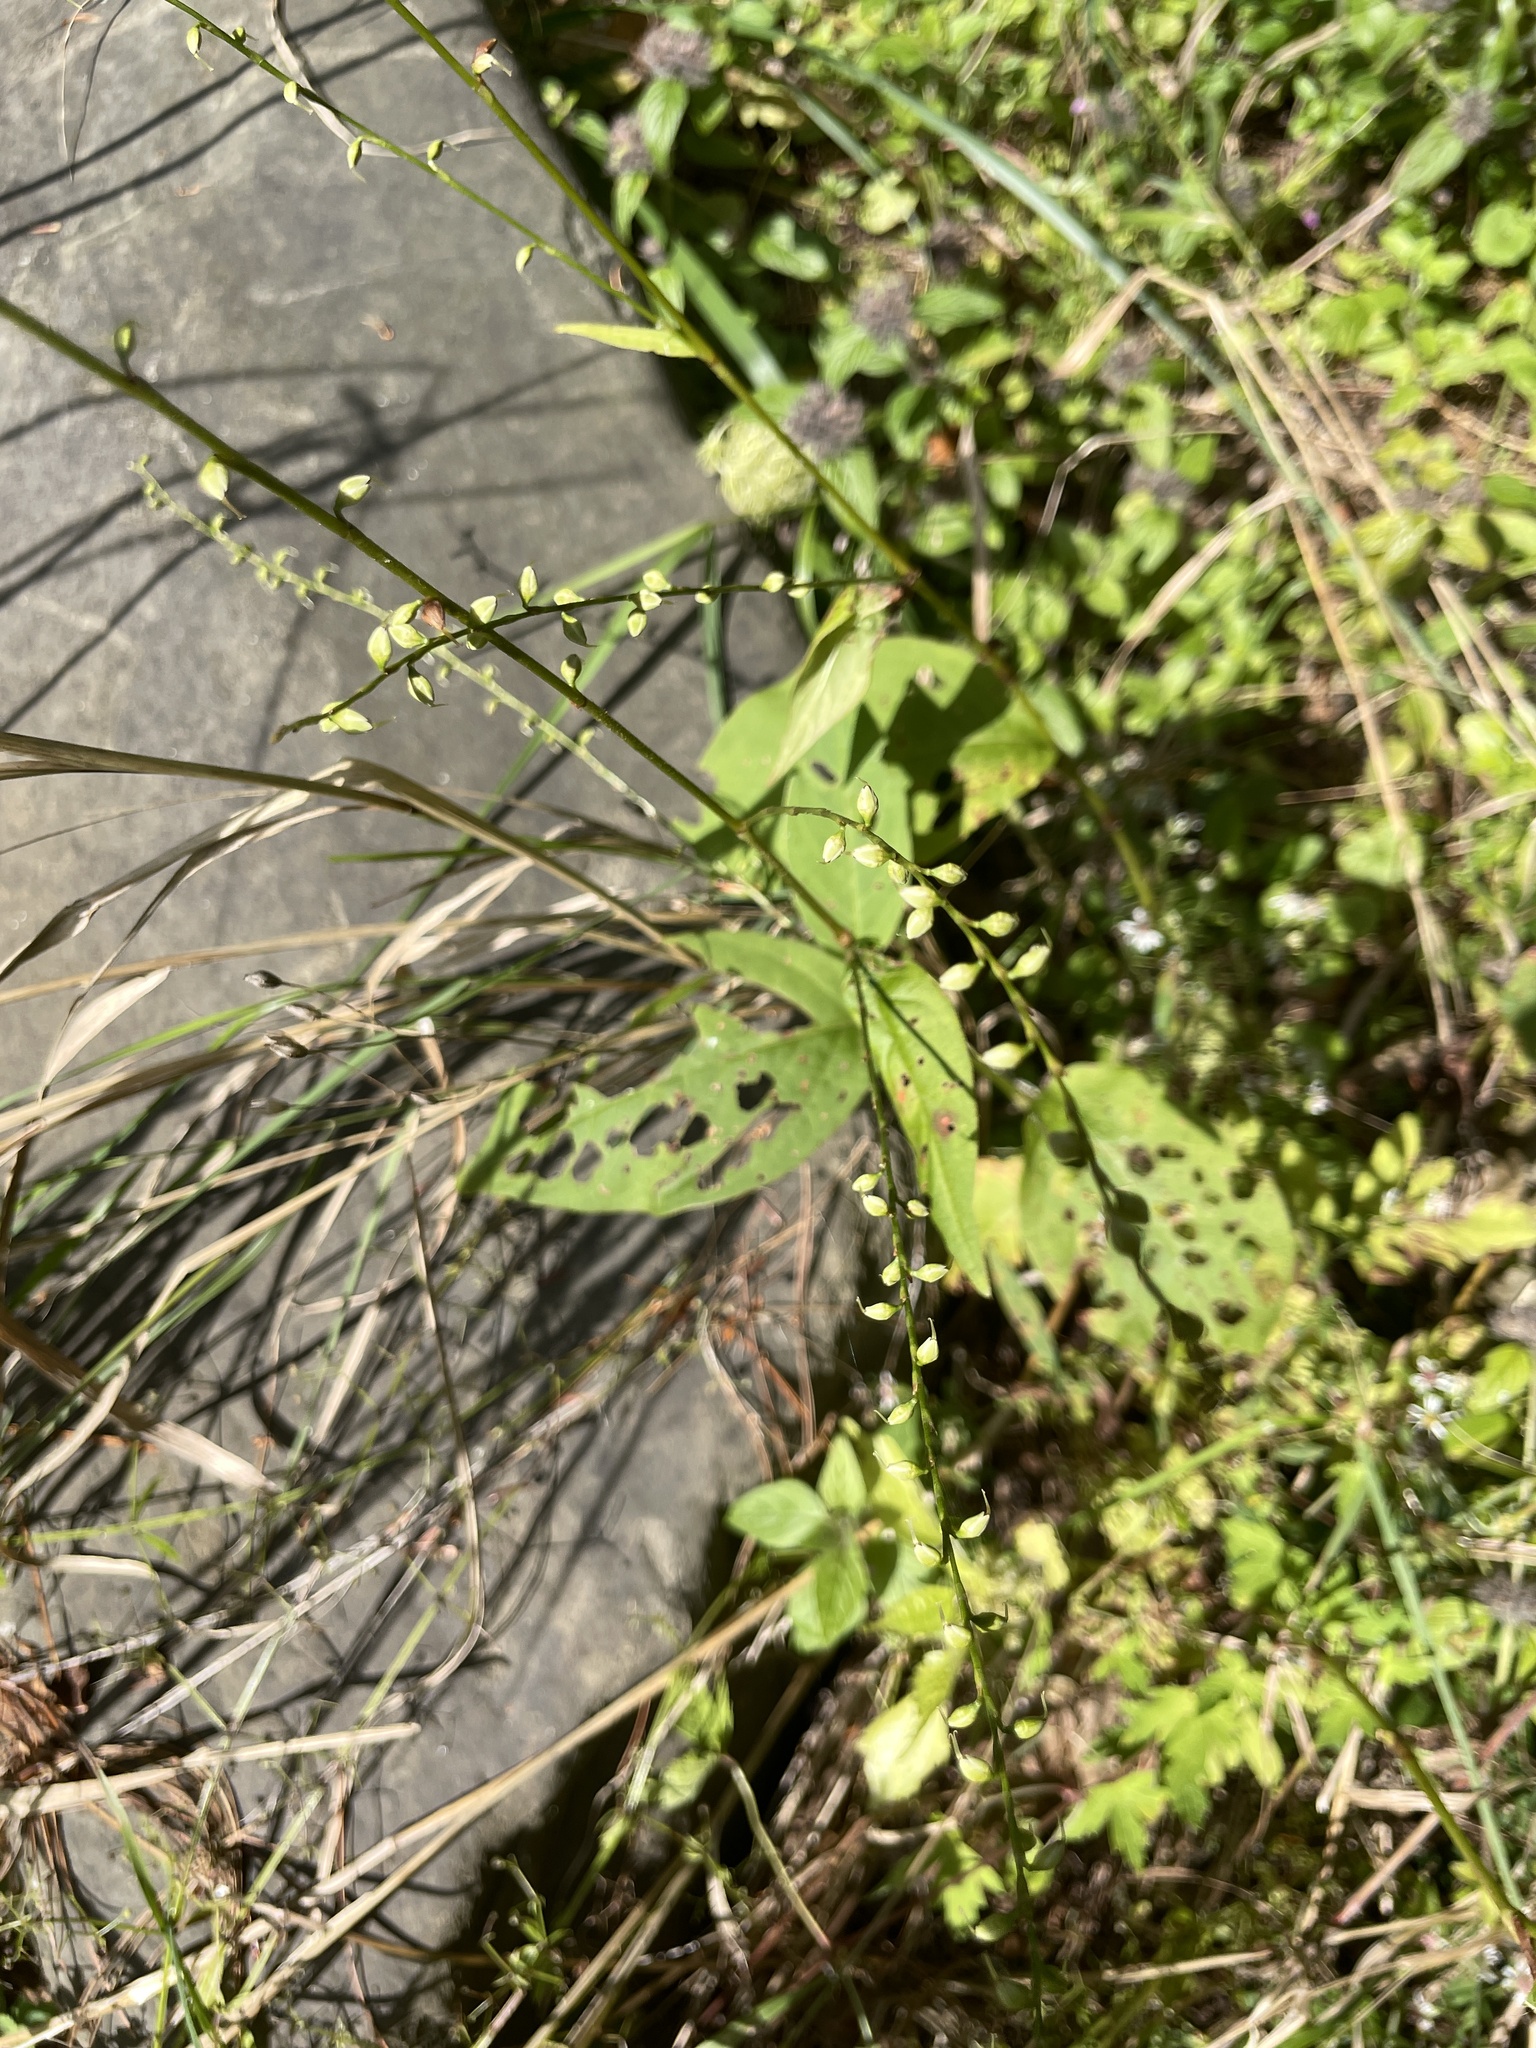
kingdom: Plantae
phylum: Tracheophyta
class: Magnoliopsida
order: Caryophyllales
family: Polygonaceae
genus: Persicaria
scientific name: Persicaria virginiana
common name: Jumpseed
